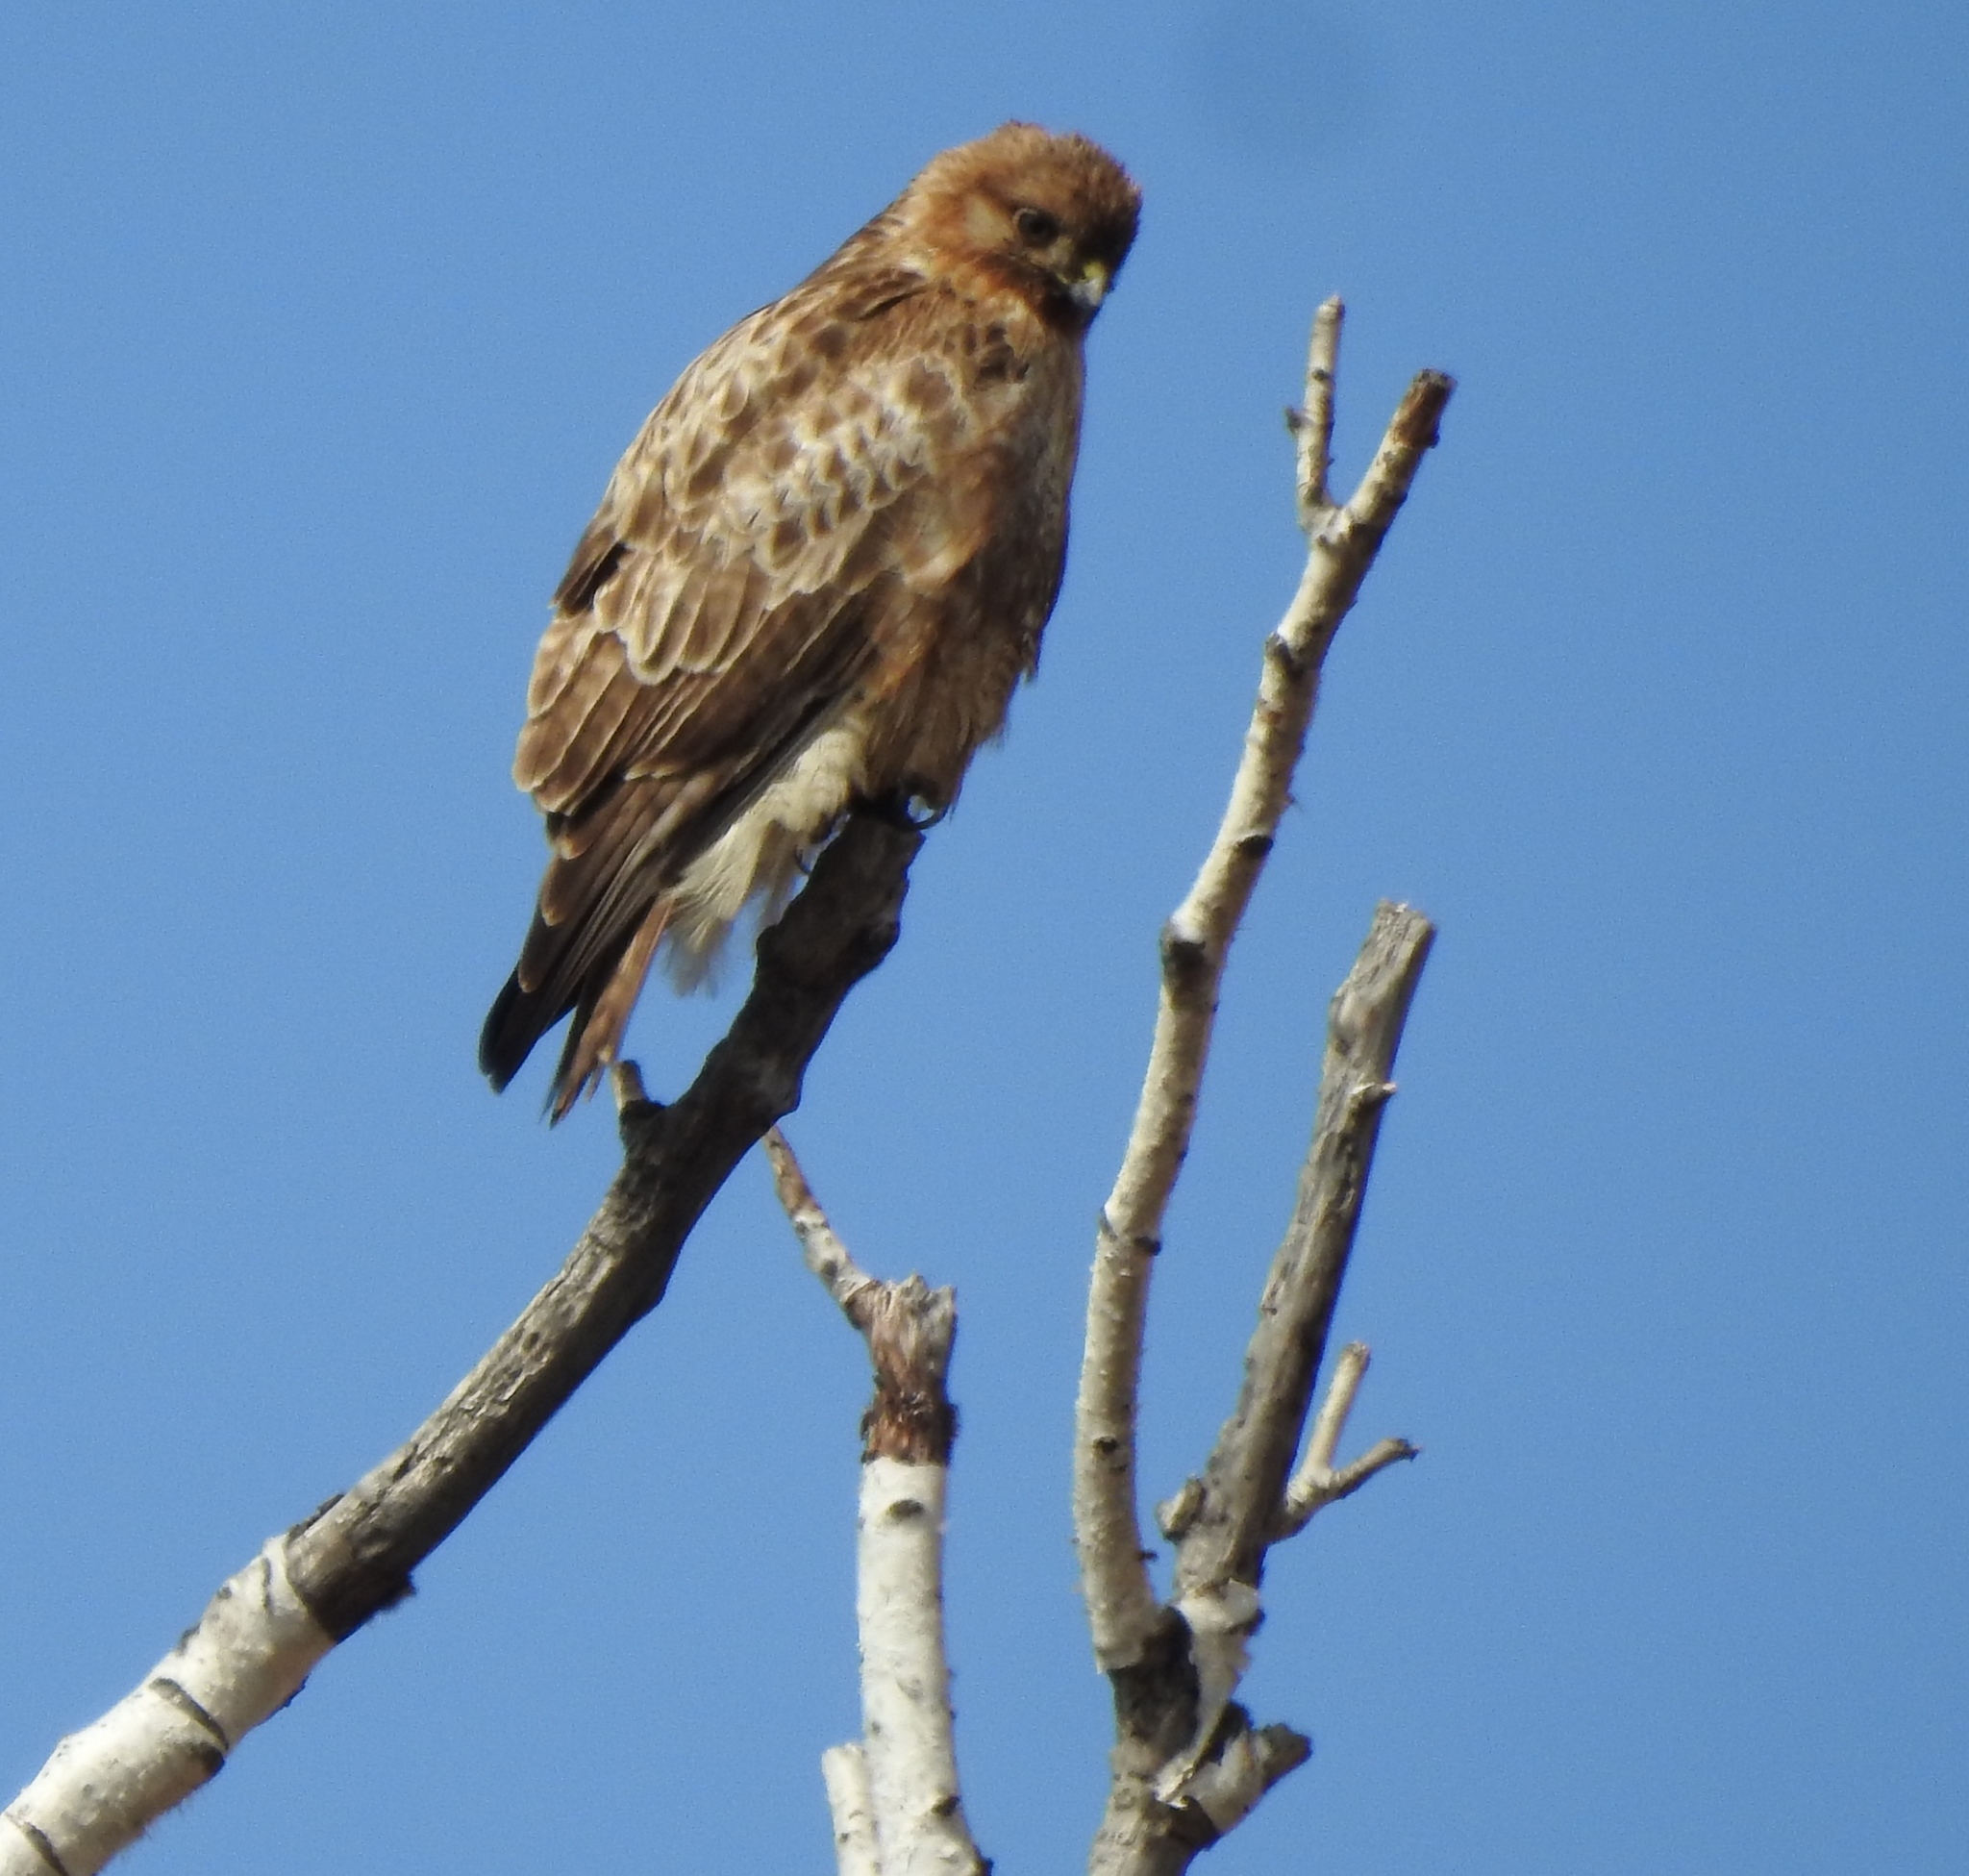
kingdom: Animalia
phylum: Chordata
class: Aves
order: Accipitriformes
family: Accipitridae
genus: Buteo
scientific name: Buteo japonicus
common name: Eastern buzzard
